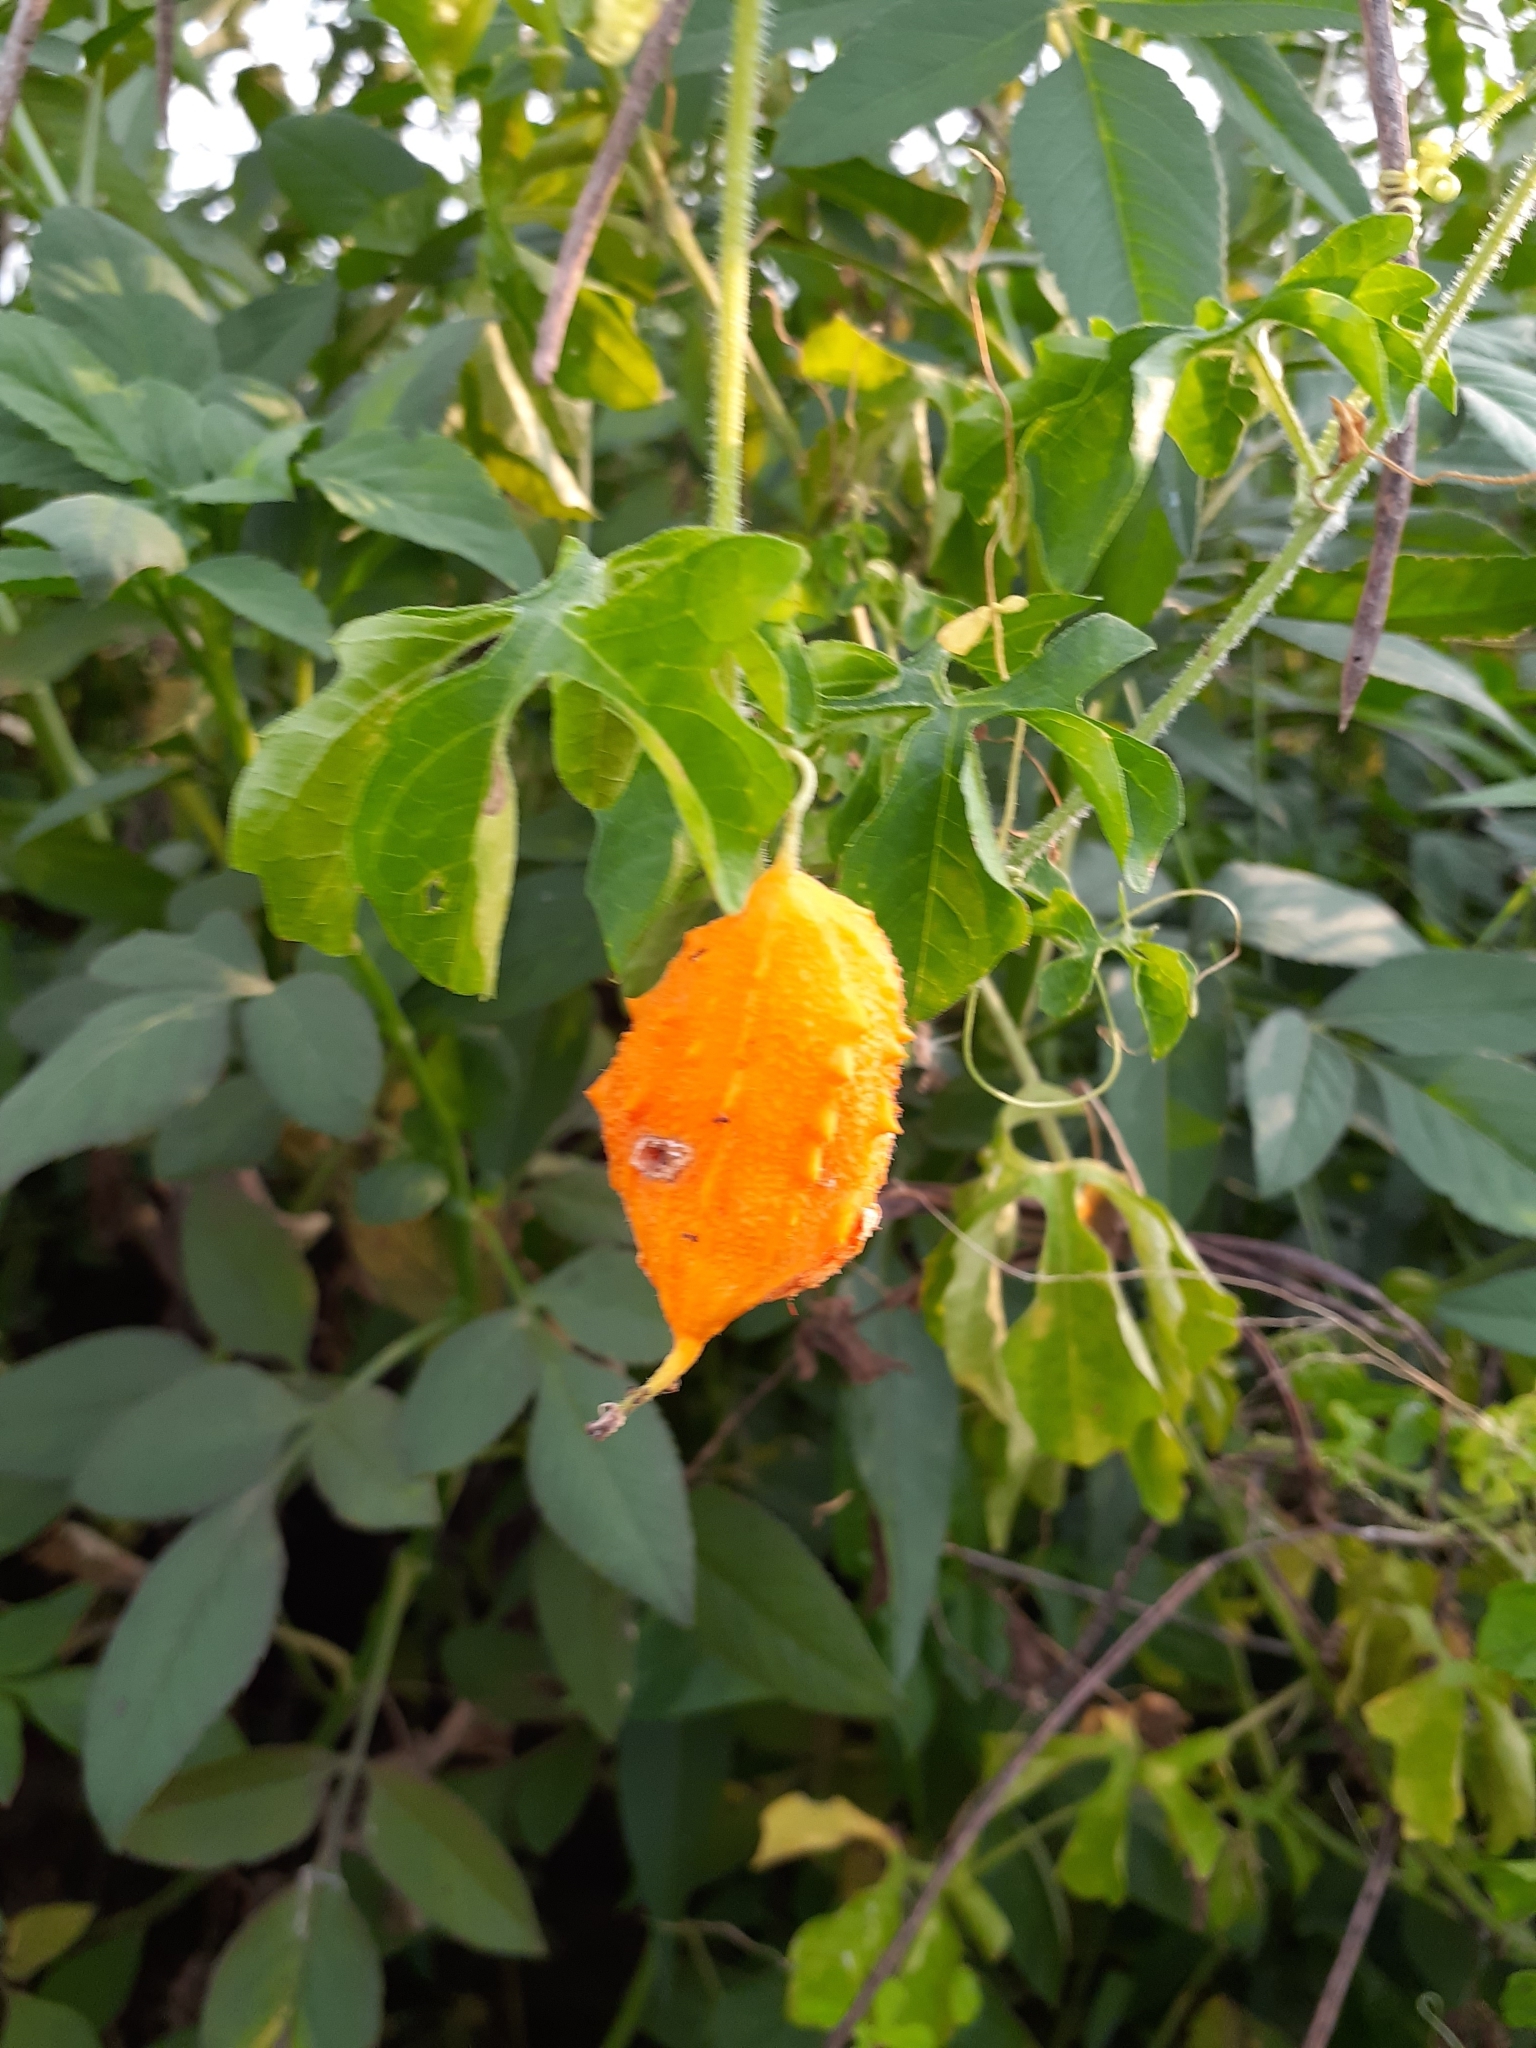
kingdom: Plantae
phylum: Tracheophyta
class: Magnoliopsida
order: Cucurbitales
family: Cucurbitaceae
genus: Momordica
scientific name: Momordica charantia
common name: Balsampear
